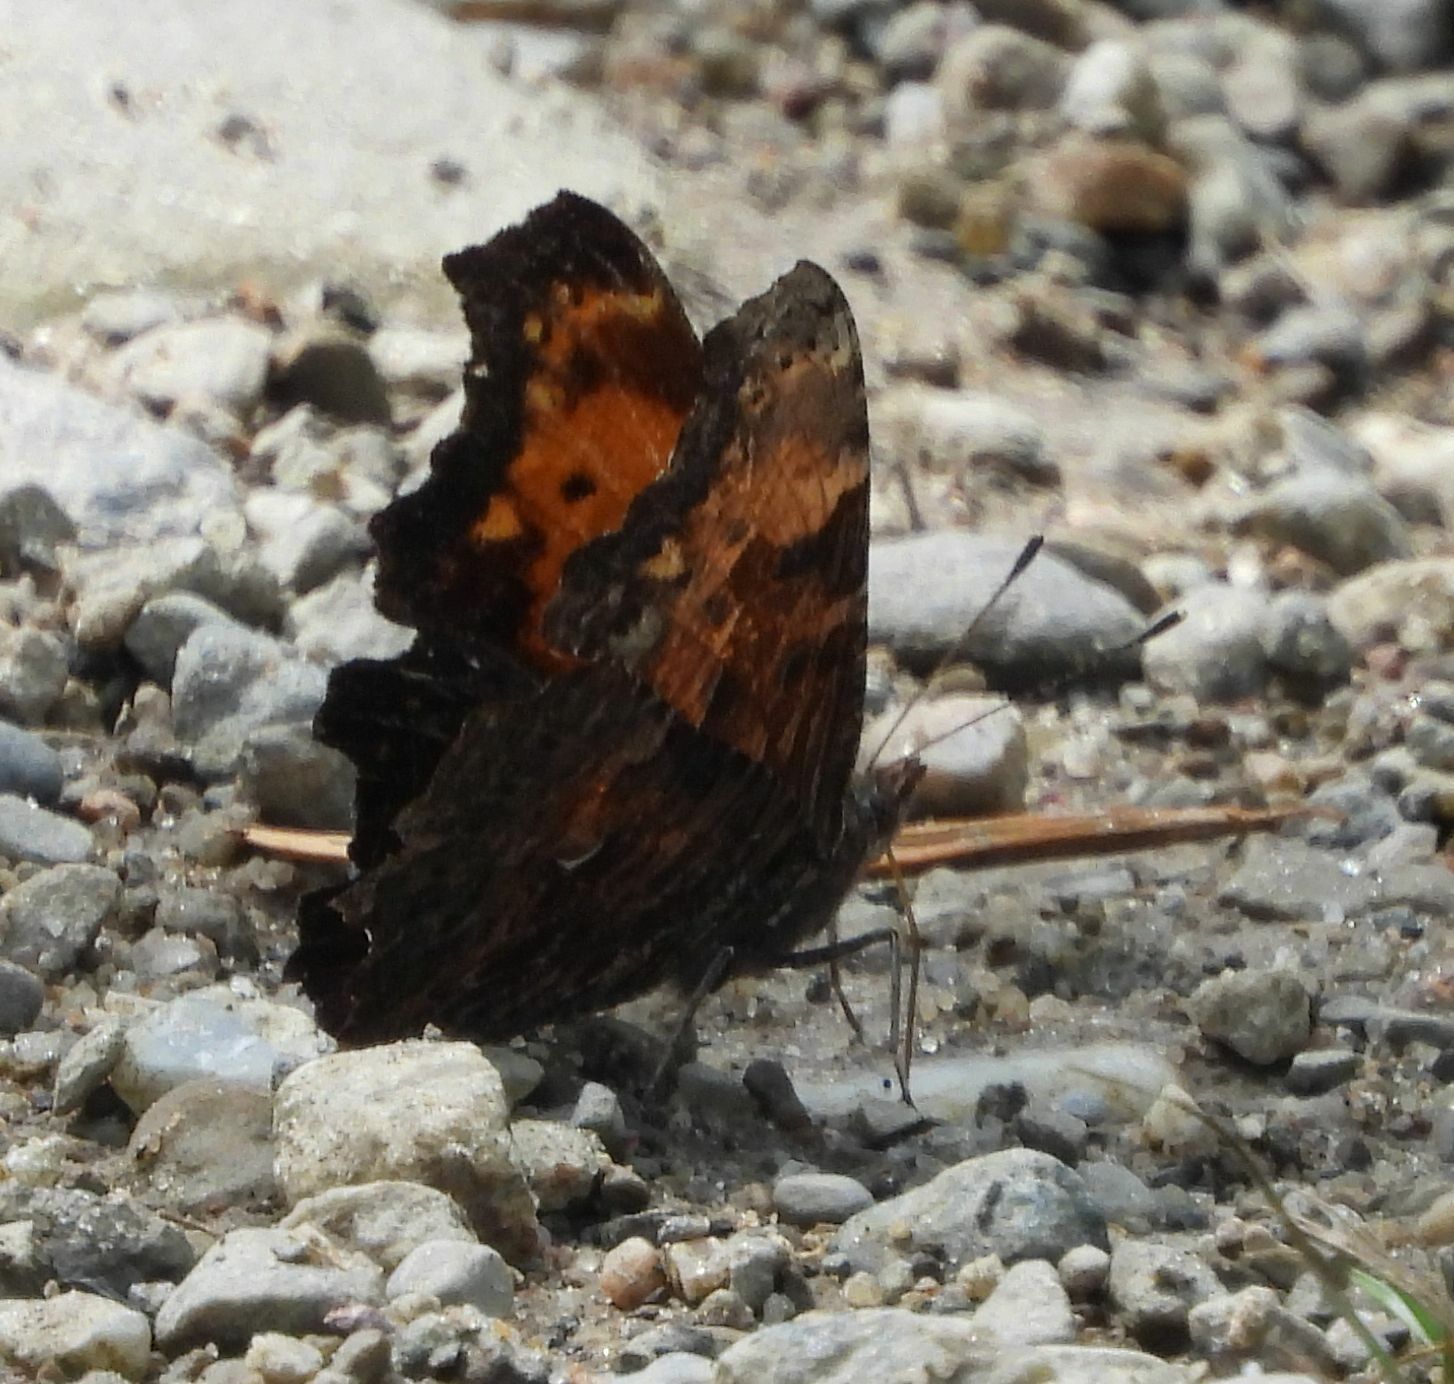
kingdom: Animalia
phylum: Arthropoda
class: Insecta
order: Lepidoptera
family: Nymphalidae
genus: Polygonia
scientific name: Polygonia progne
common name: Gray comma
